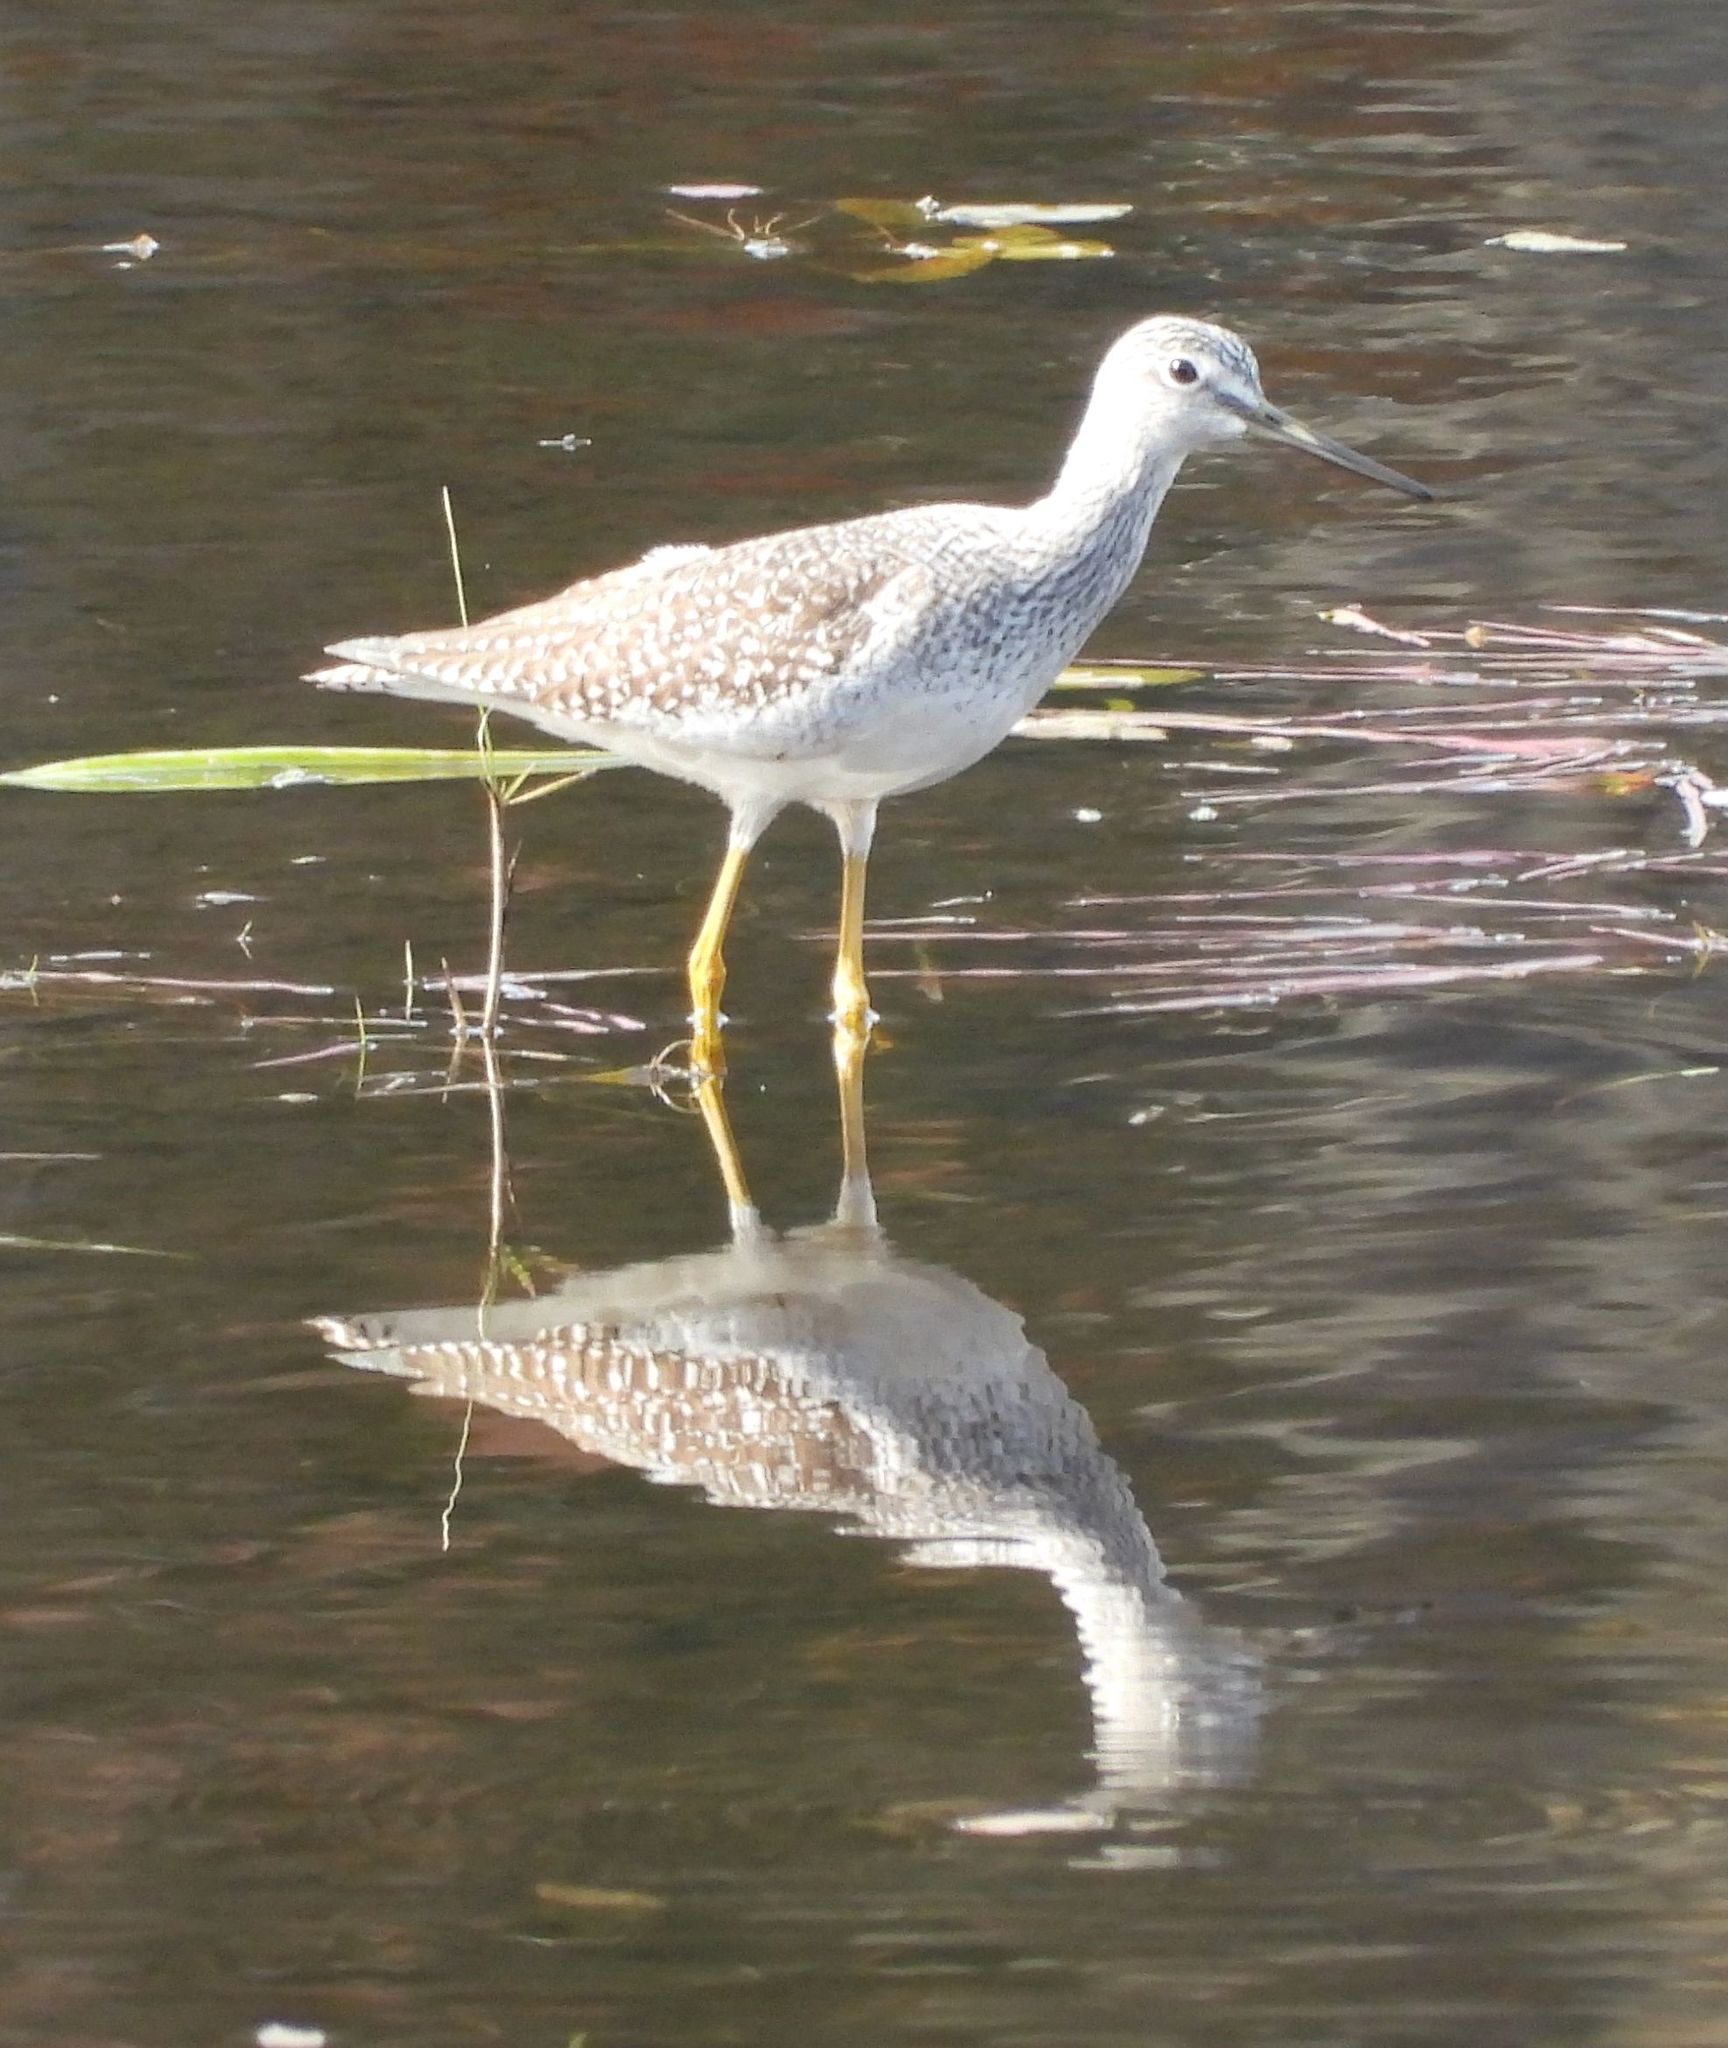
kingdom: Animalia
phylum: Chordata
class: Aves
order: Charadriiformes
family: Scolopacidae
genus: Tringa
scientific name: Tringa melanoleuca
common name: Greater yellowlegs
